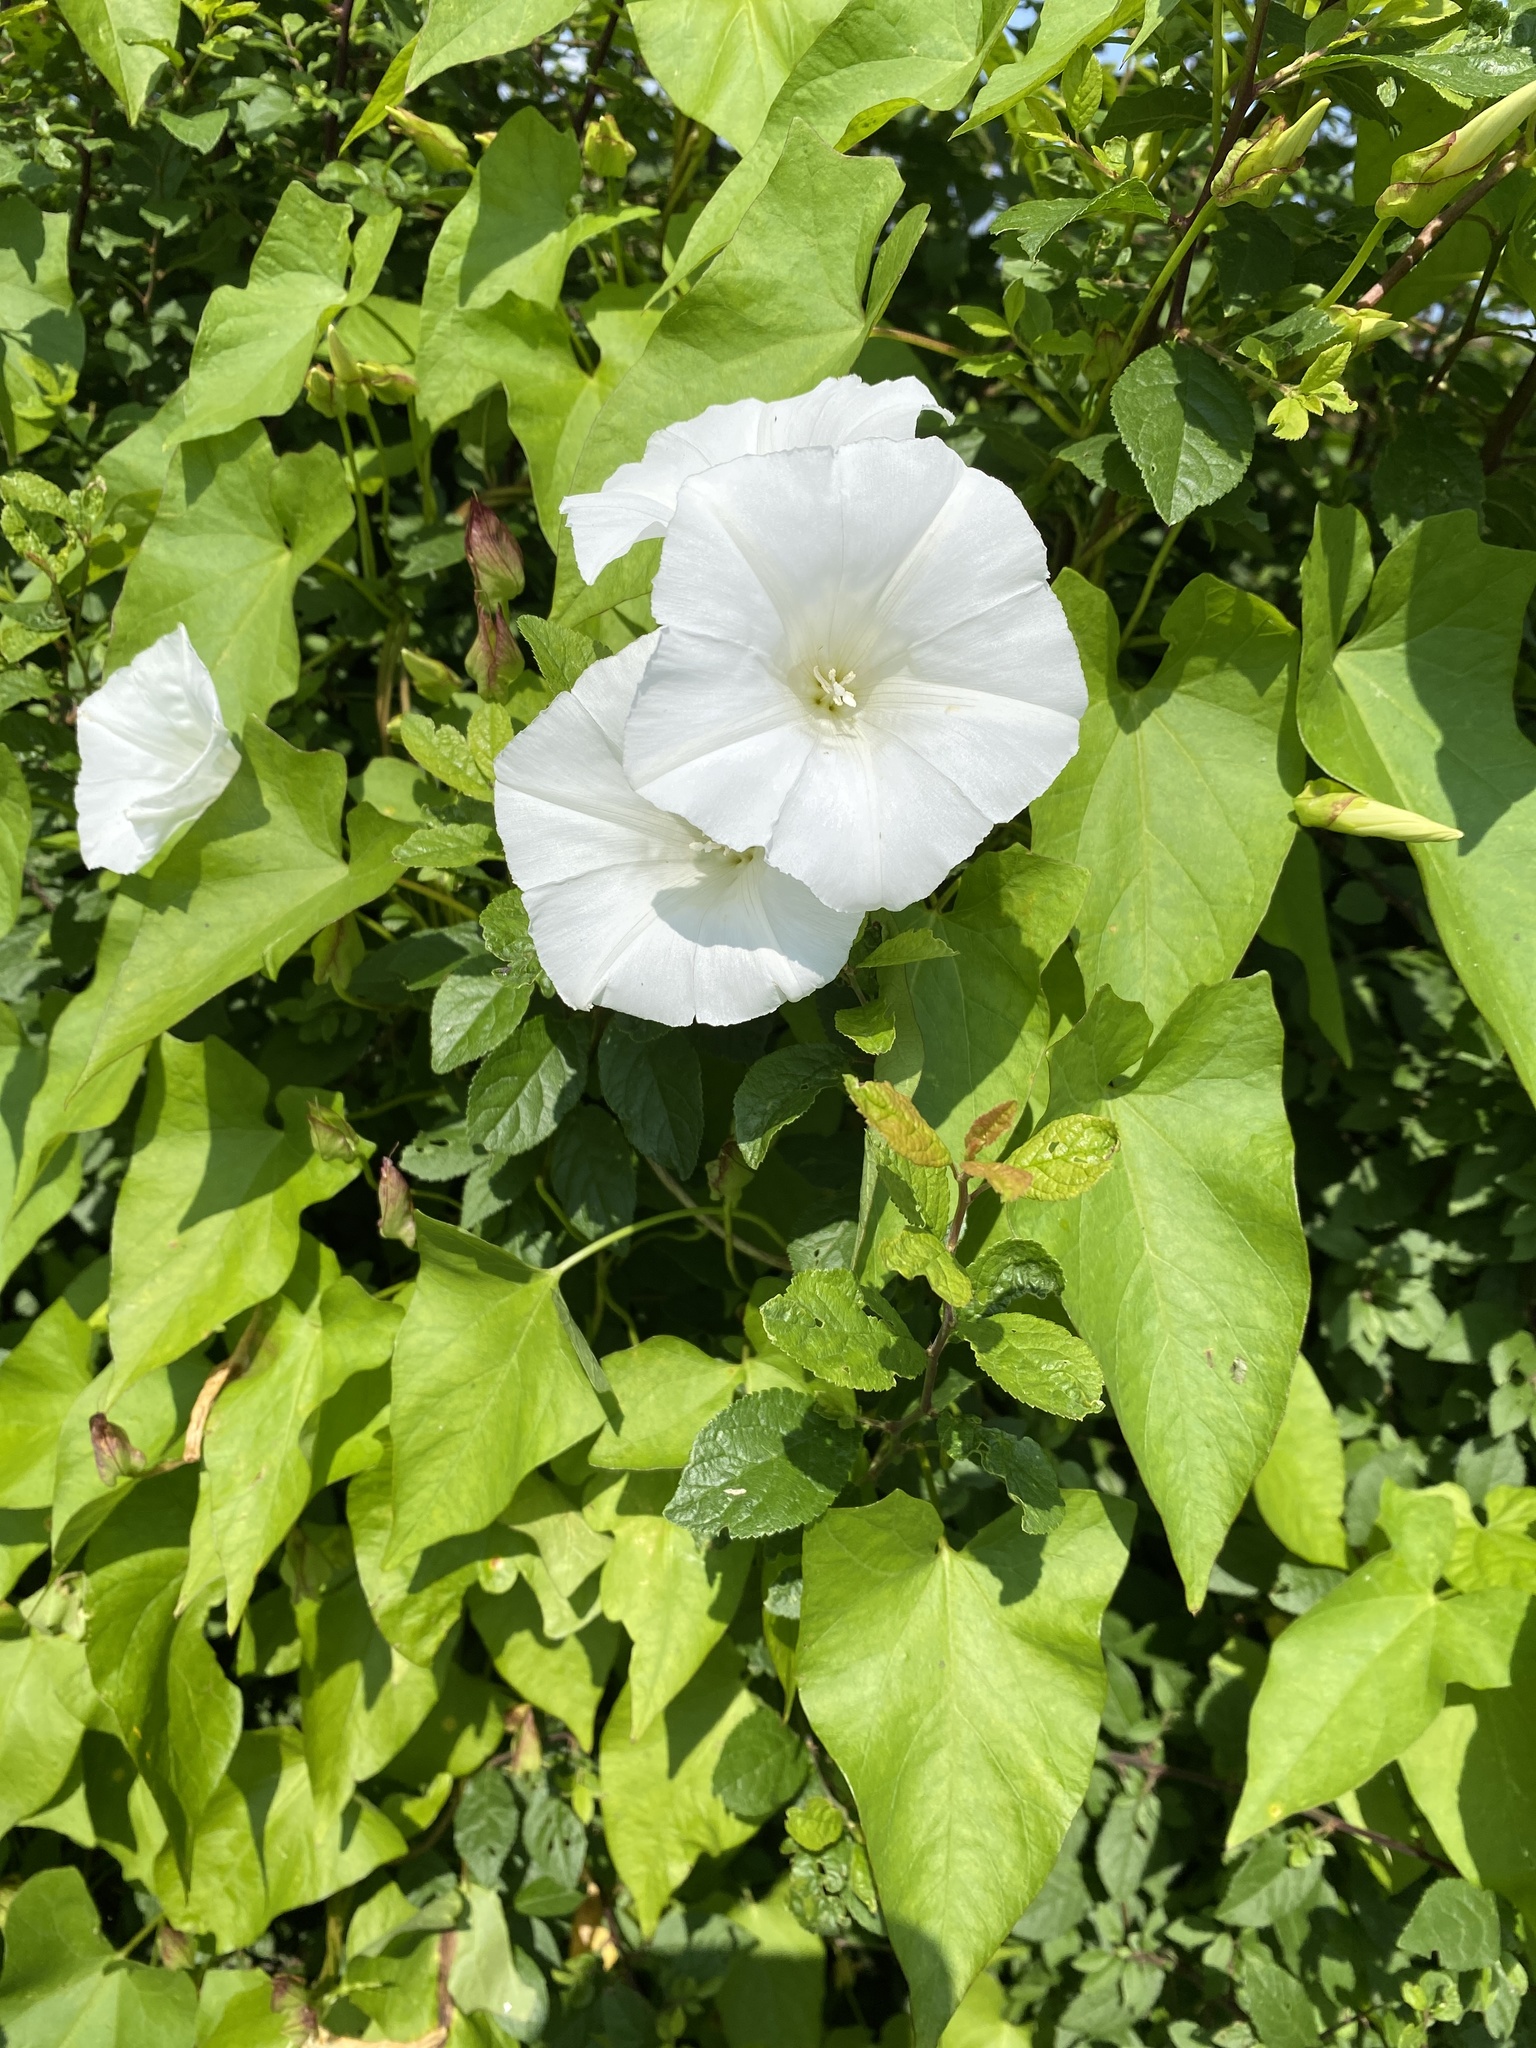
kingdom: Plantae
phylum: Tracheophyta
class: Magnoliopsida
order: Solanales
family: Convolvulaceae
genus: Calystegia
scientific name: Calystegia sepium
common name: Hedge bindweed
